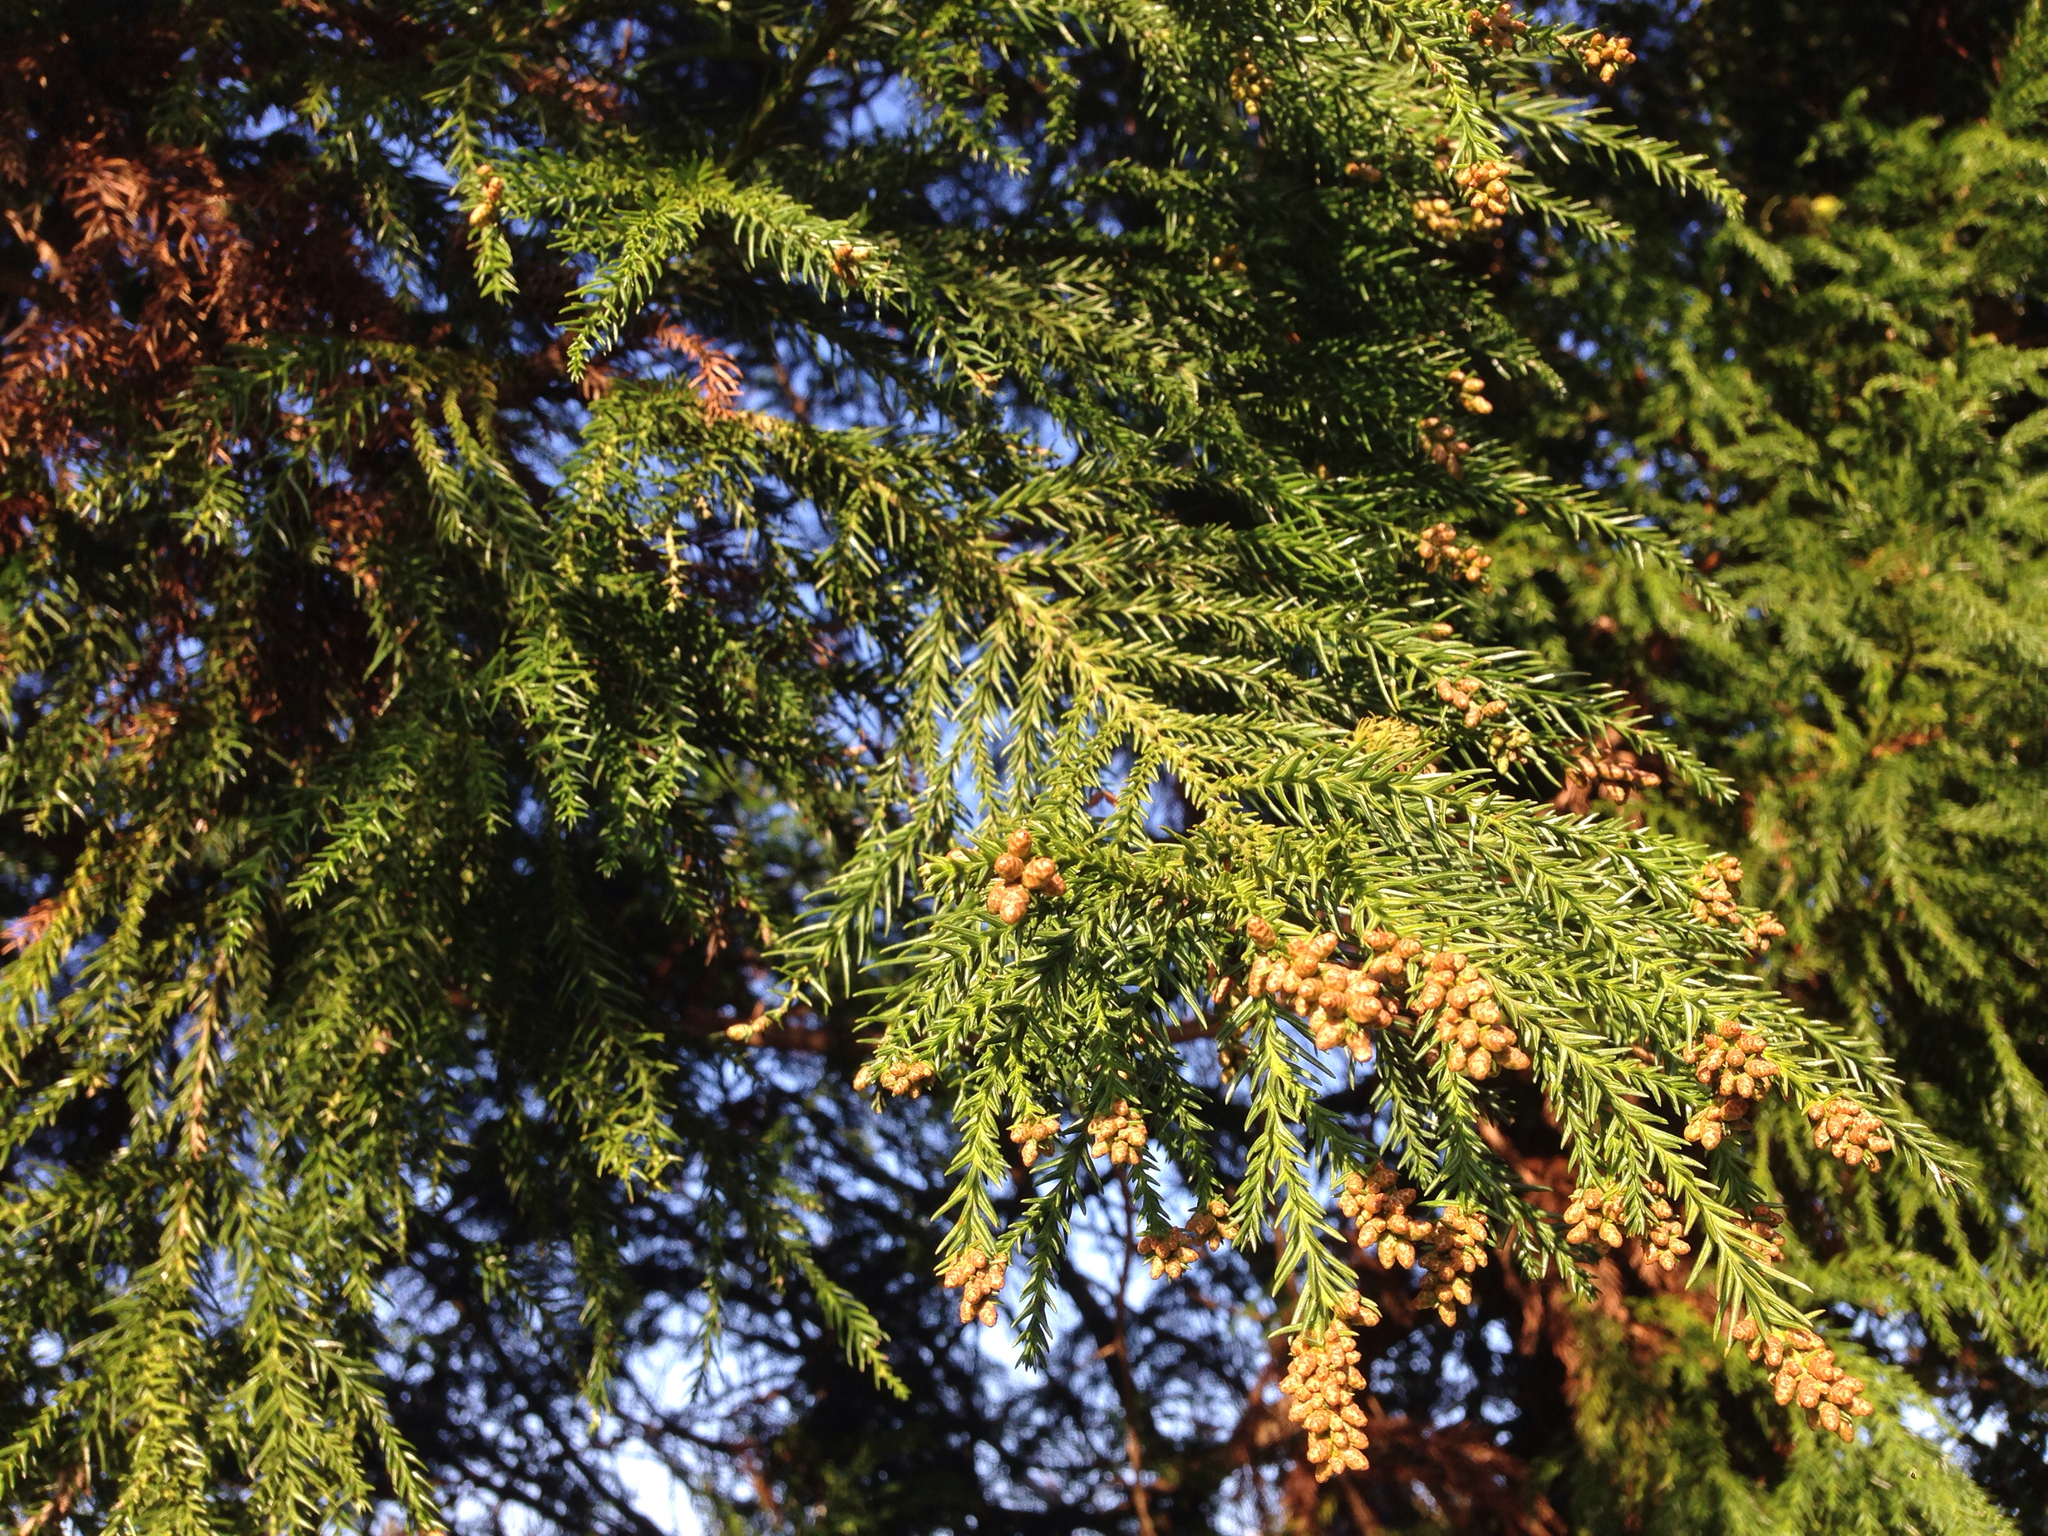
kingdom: Plantae
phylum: Tracheophyta
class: Pinopsida
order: Pinales
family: Cupressaceae
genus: Cryptomeria
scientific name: Cryptomeria japonica
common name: Japanese cedar
